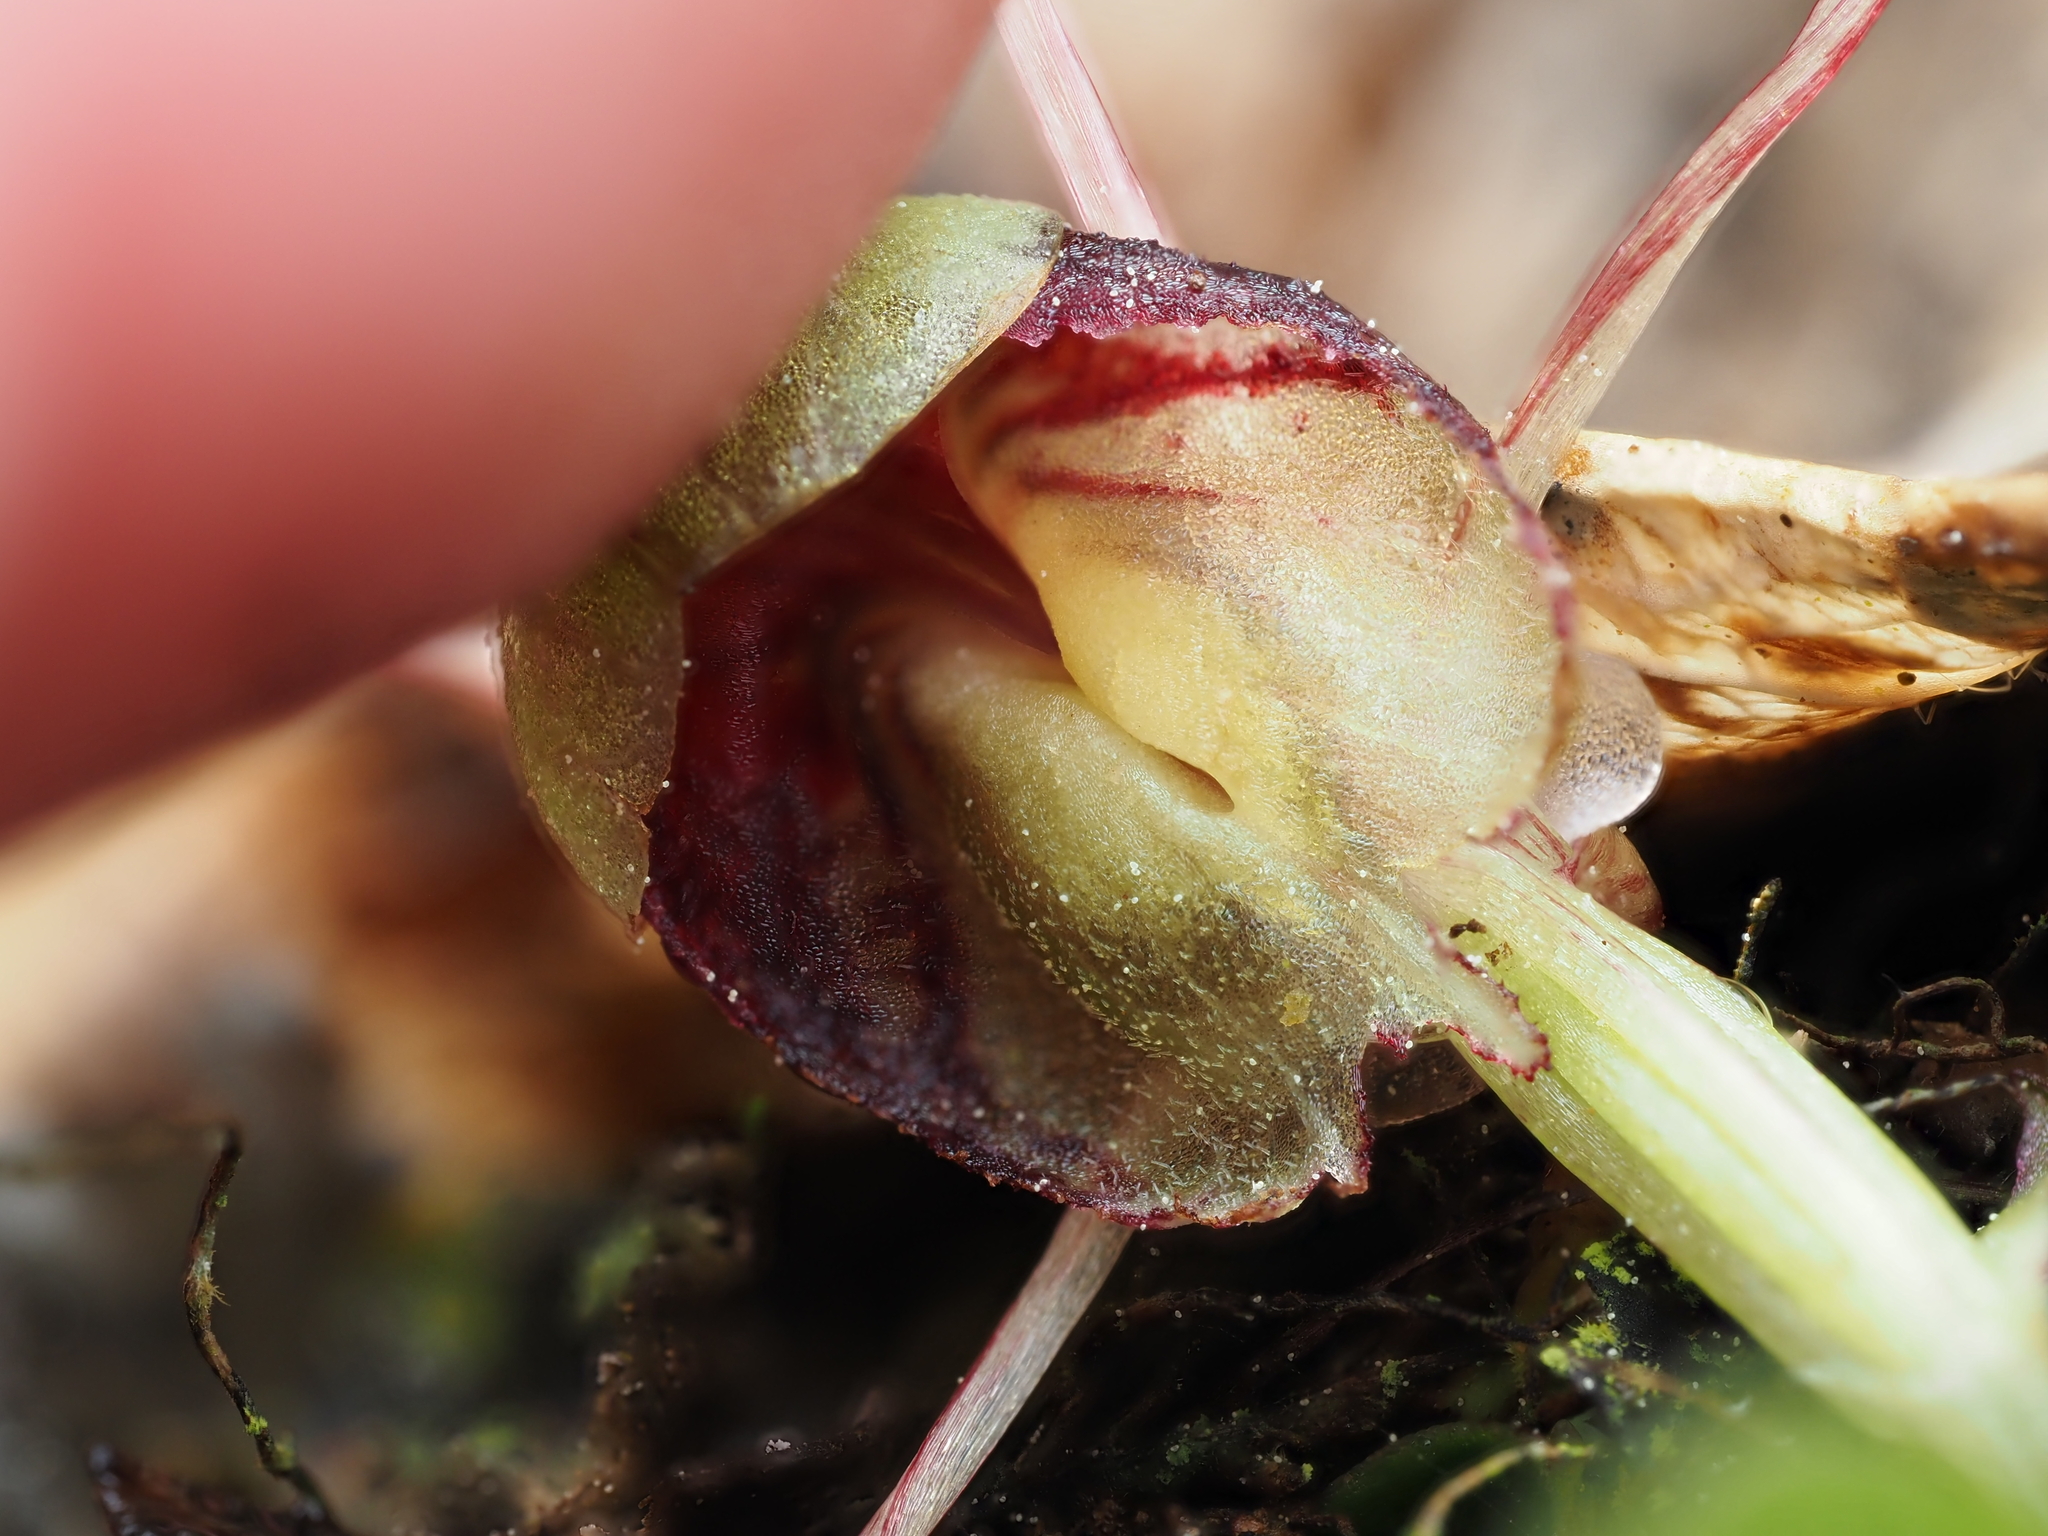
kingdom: Plantae
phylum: Tracheophyta
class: Liliopsida
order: Asparagales
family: Orchidaceae
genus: Corybas
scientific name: Corybas vitreus
